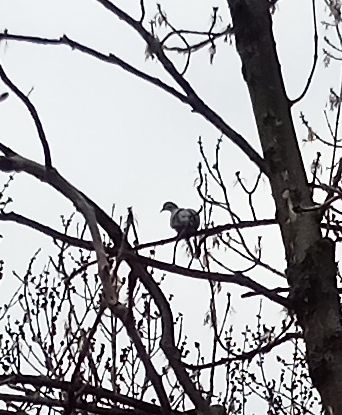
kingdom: Animalia
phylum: Chordata
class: Aves
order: Columbiformes
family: Columbidae
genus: Columba
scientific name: Columba palumbus
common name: Common wood pigeon
